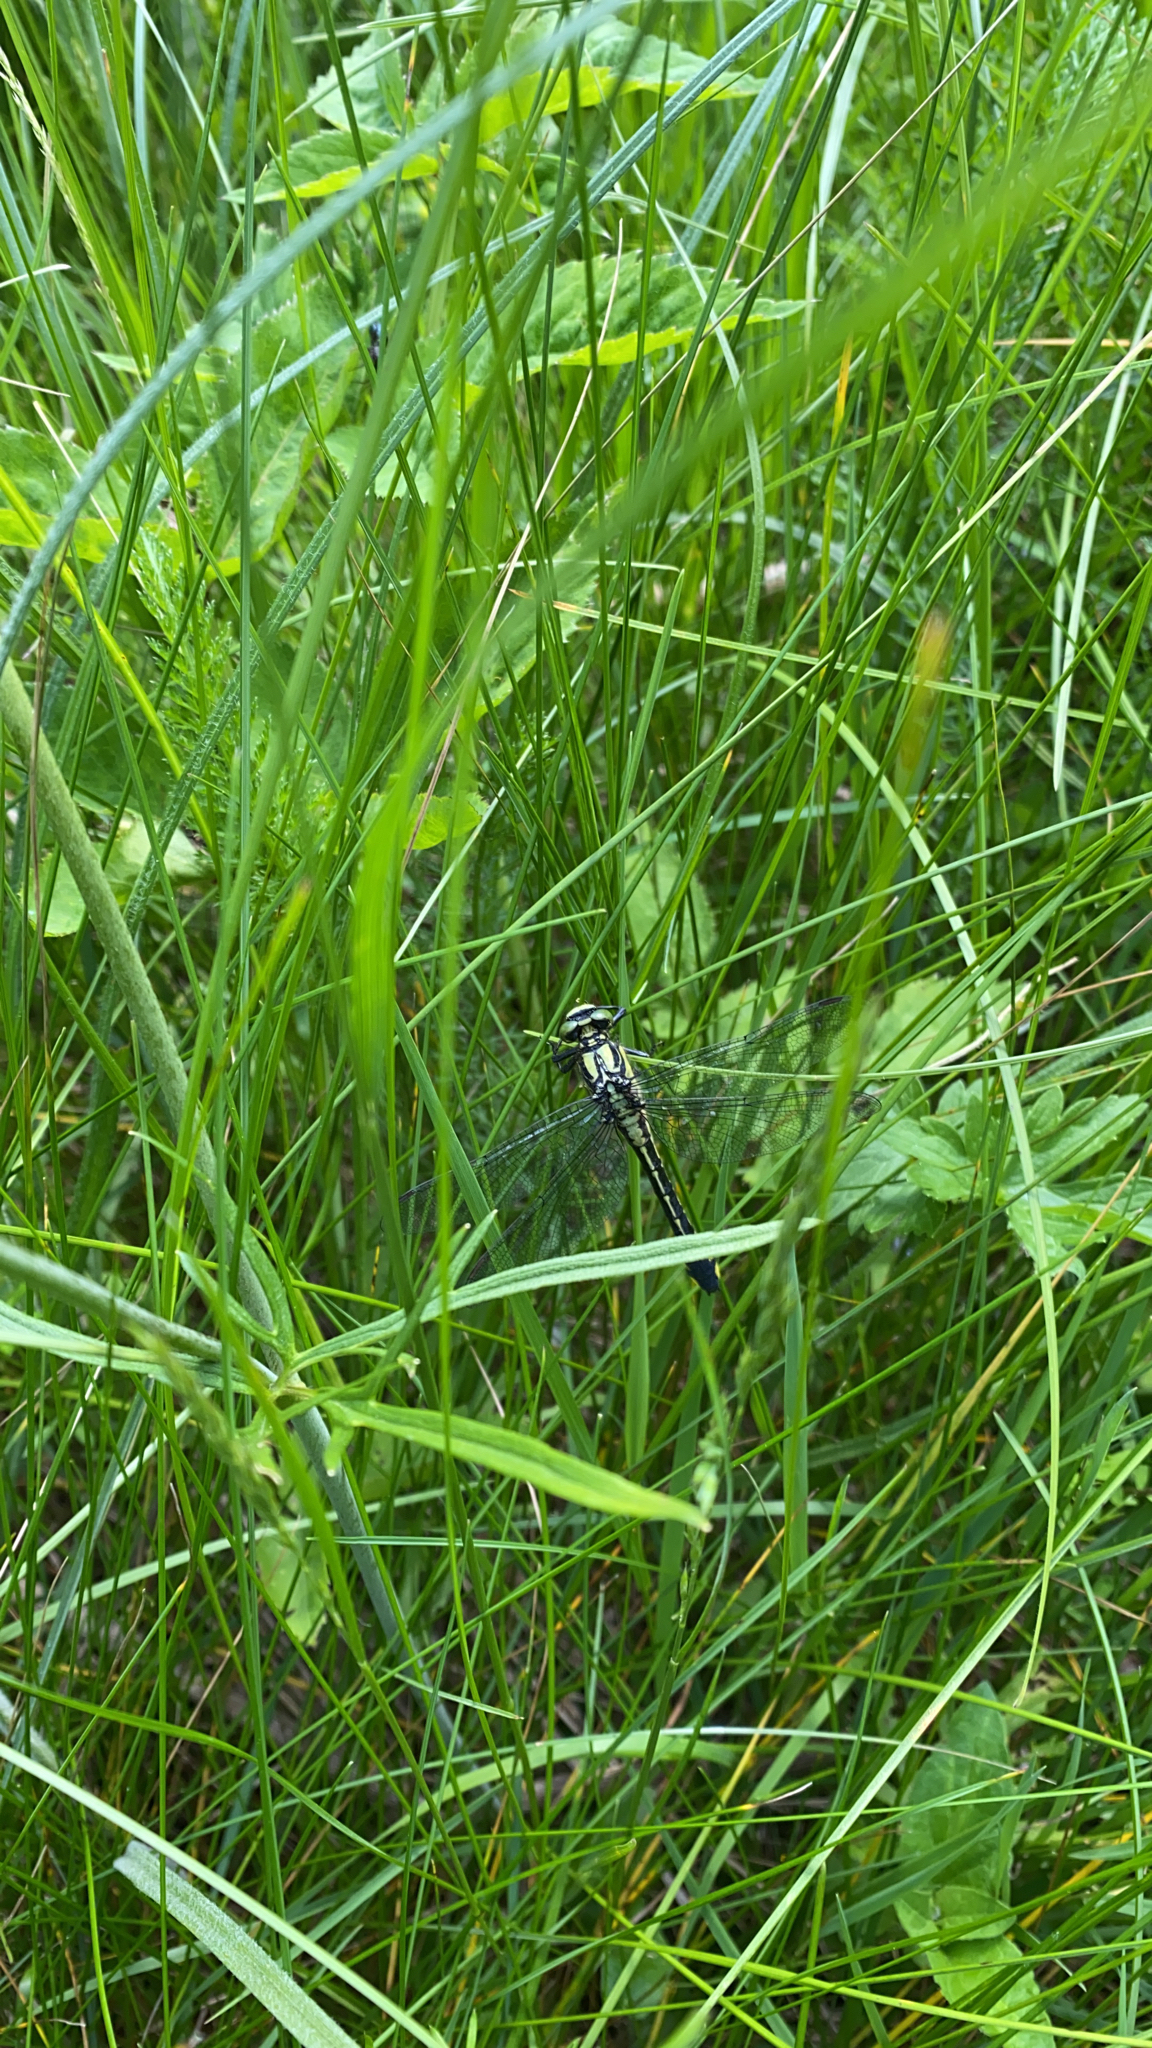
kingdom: Animalia
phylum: Arthropoda
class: Insecta
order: Odonata
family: Gomphidae
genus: Gomphus
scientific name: Gomphus vulgatissimus
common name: Club-tailed dragonfly
